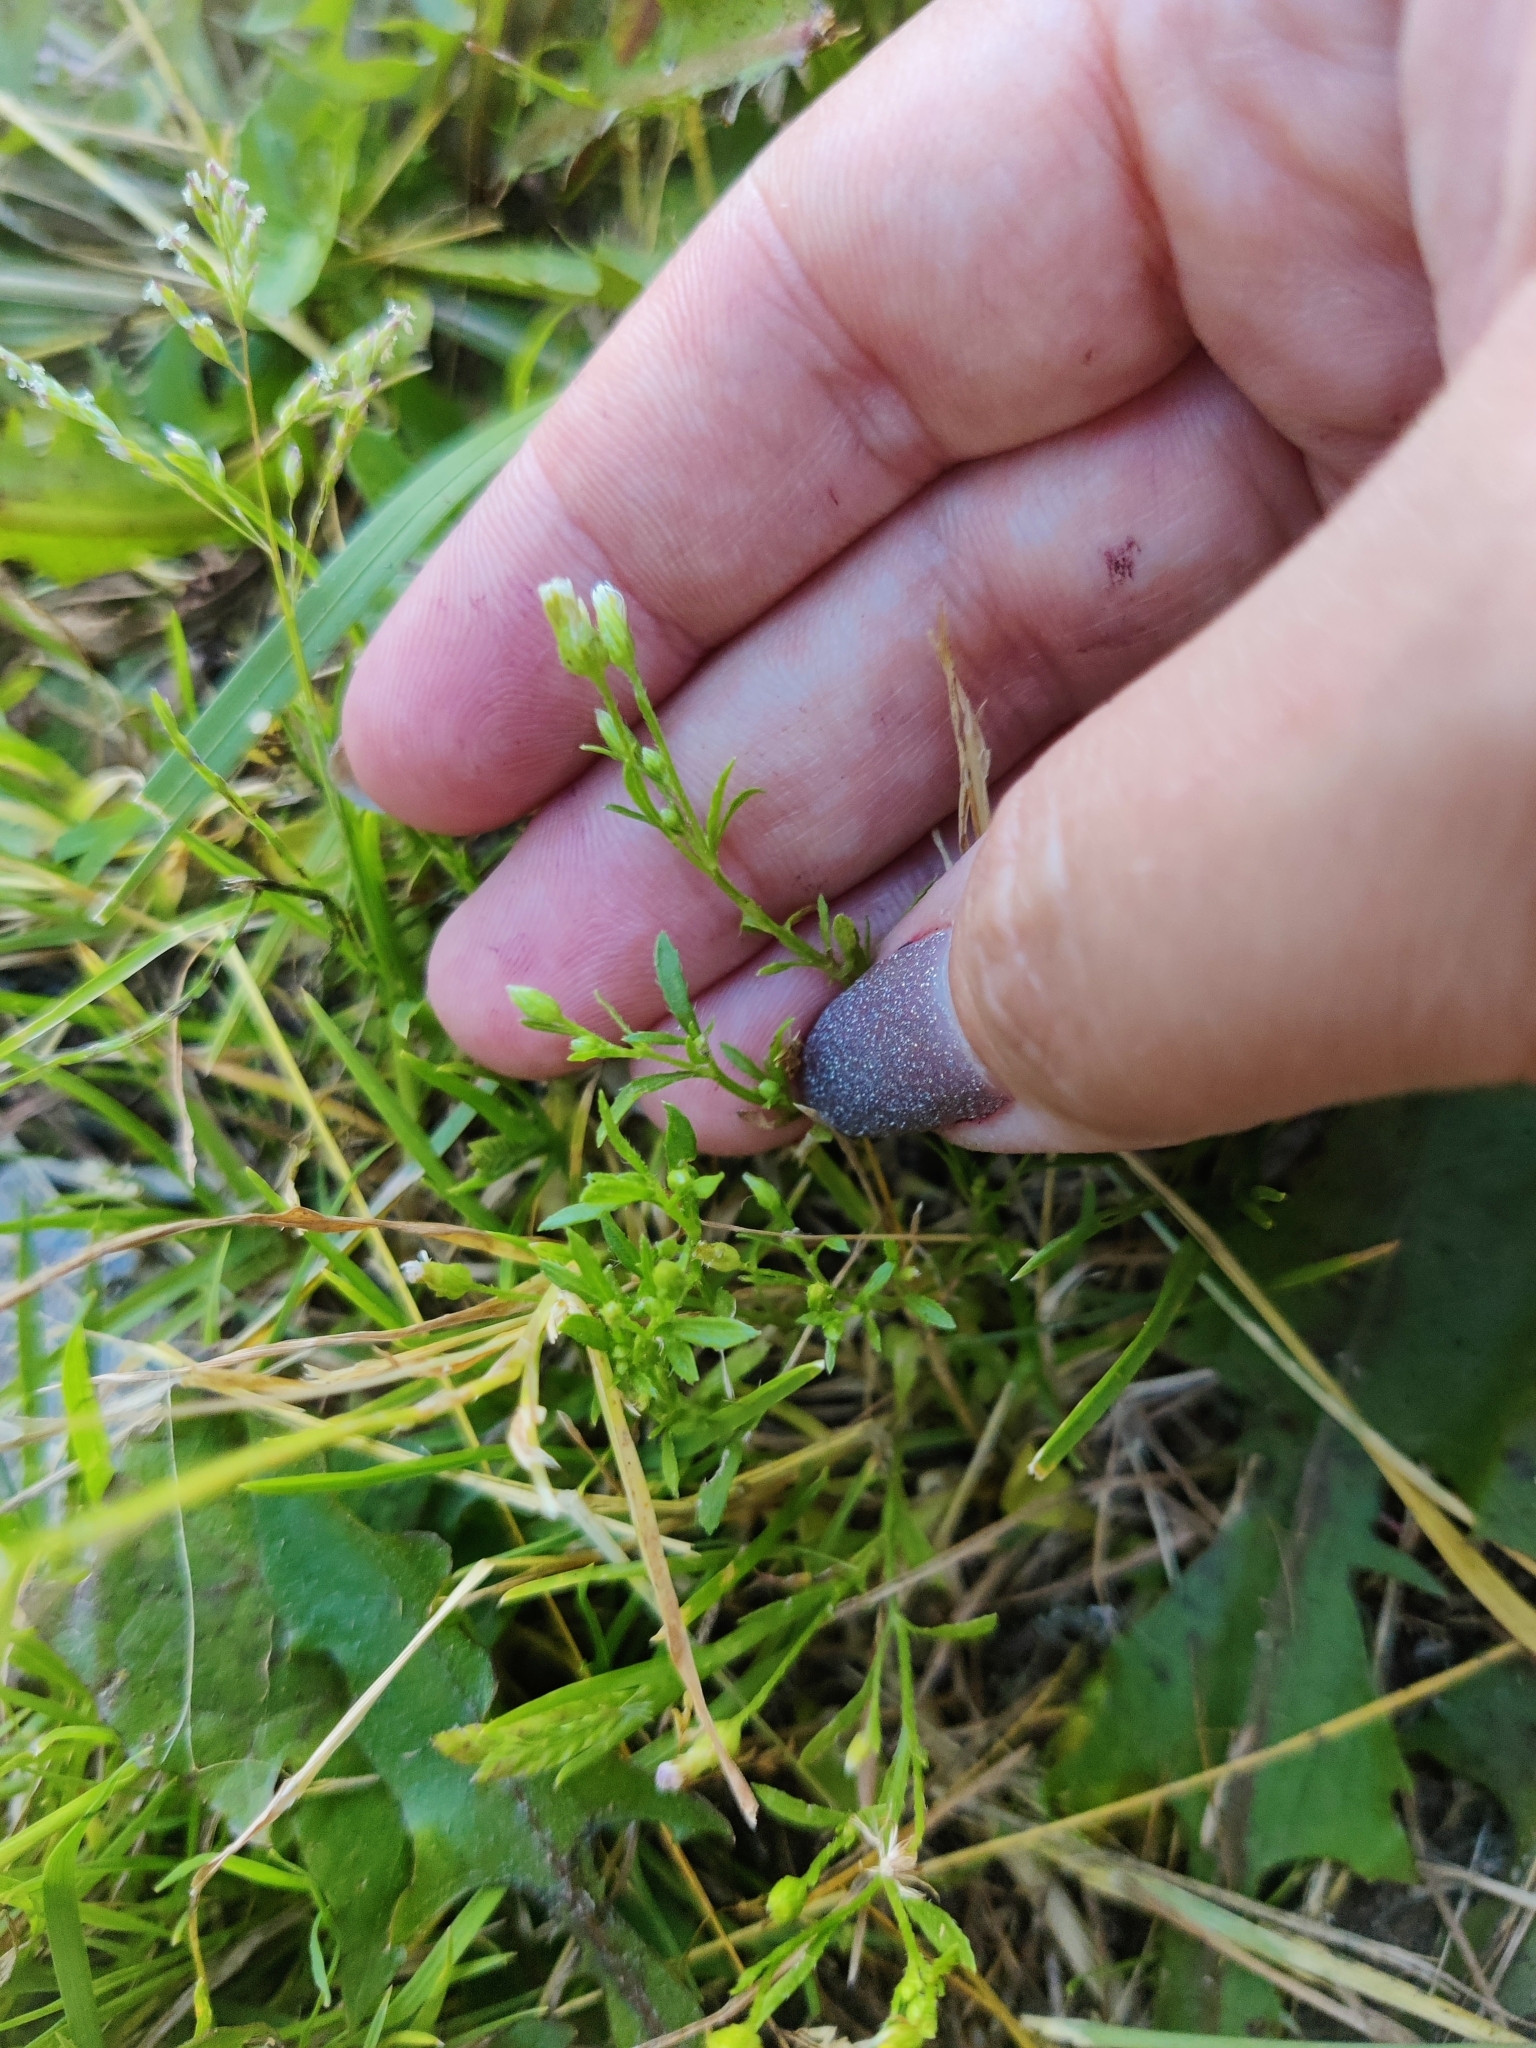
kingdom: Plantae
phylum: Tracheophyta
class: Magnoliopsida
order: Asterales
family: Asteraceae
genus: Erigeron
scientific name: Erigeron canadensis
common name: Canadian fleabane
